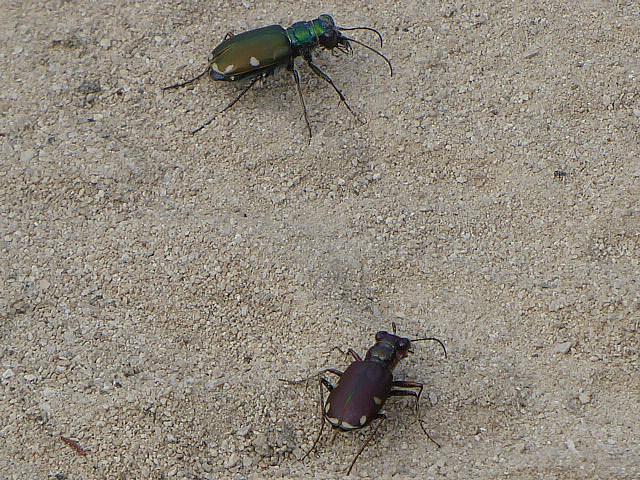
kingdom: Animalia
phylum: Arthropoda
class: Insecta
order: Coleoptera
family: Carabidae
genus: Cicindela
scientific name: Cicindela scutellaris
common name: Festive tiger beetle
